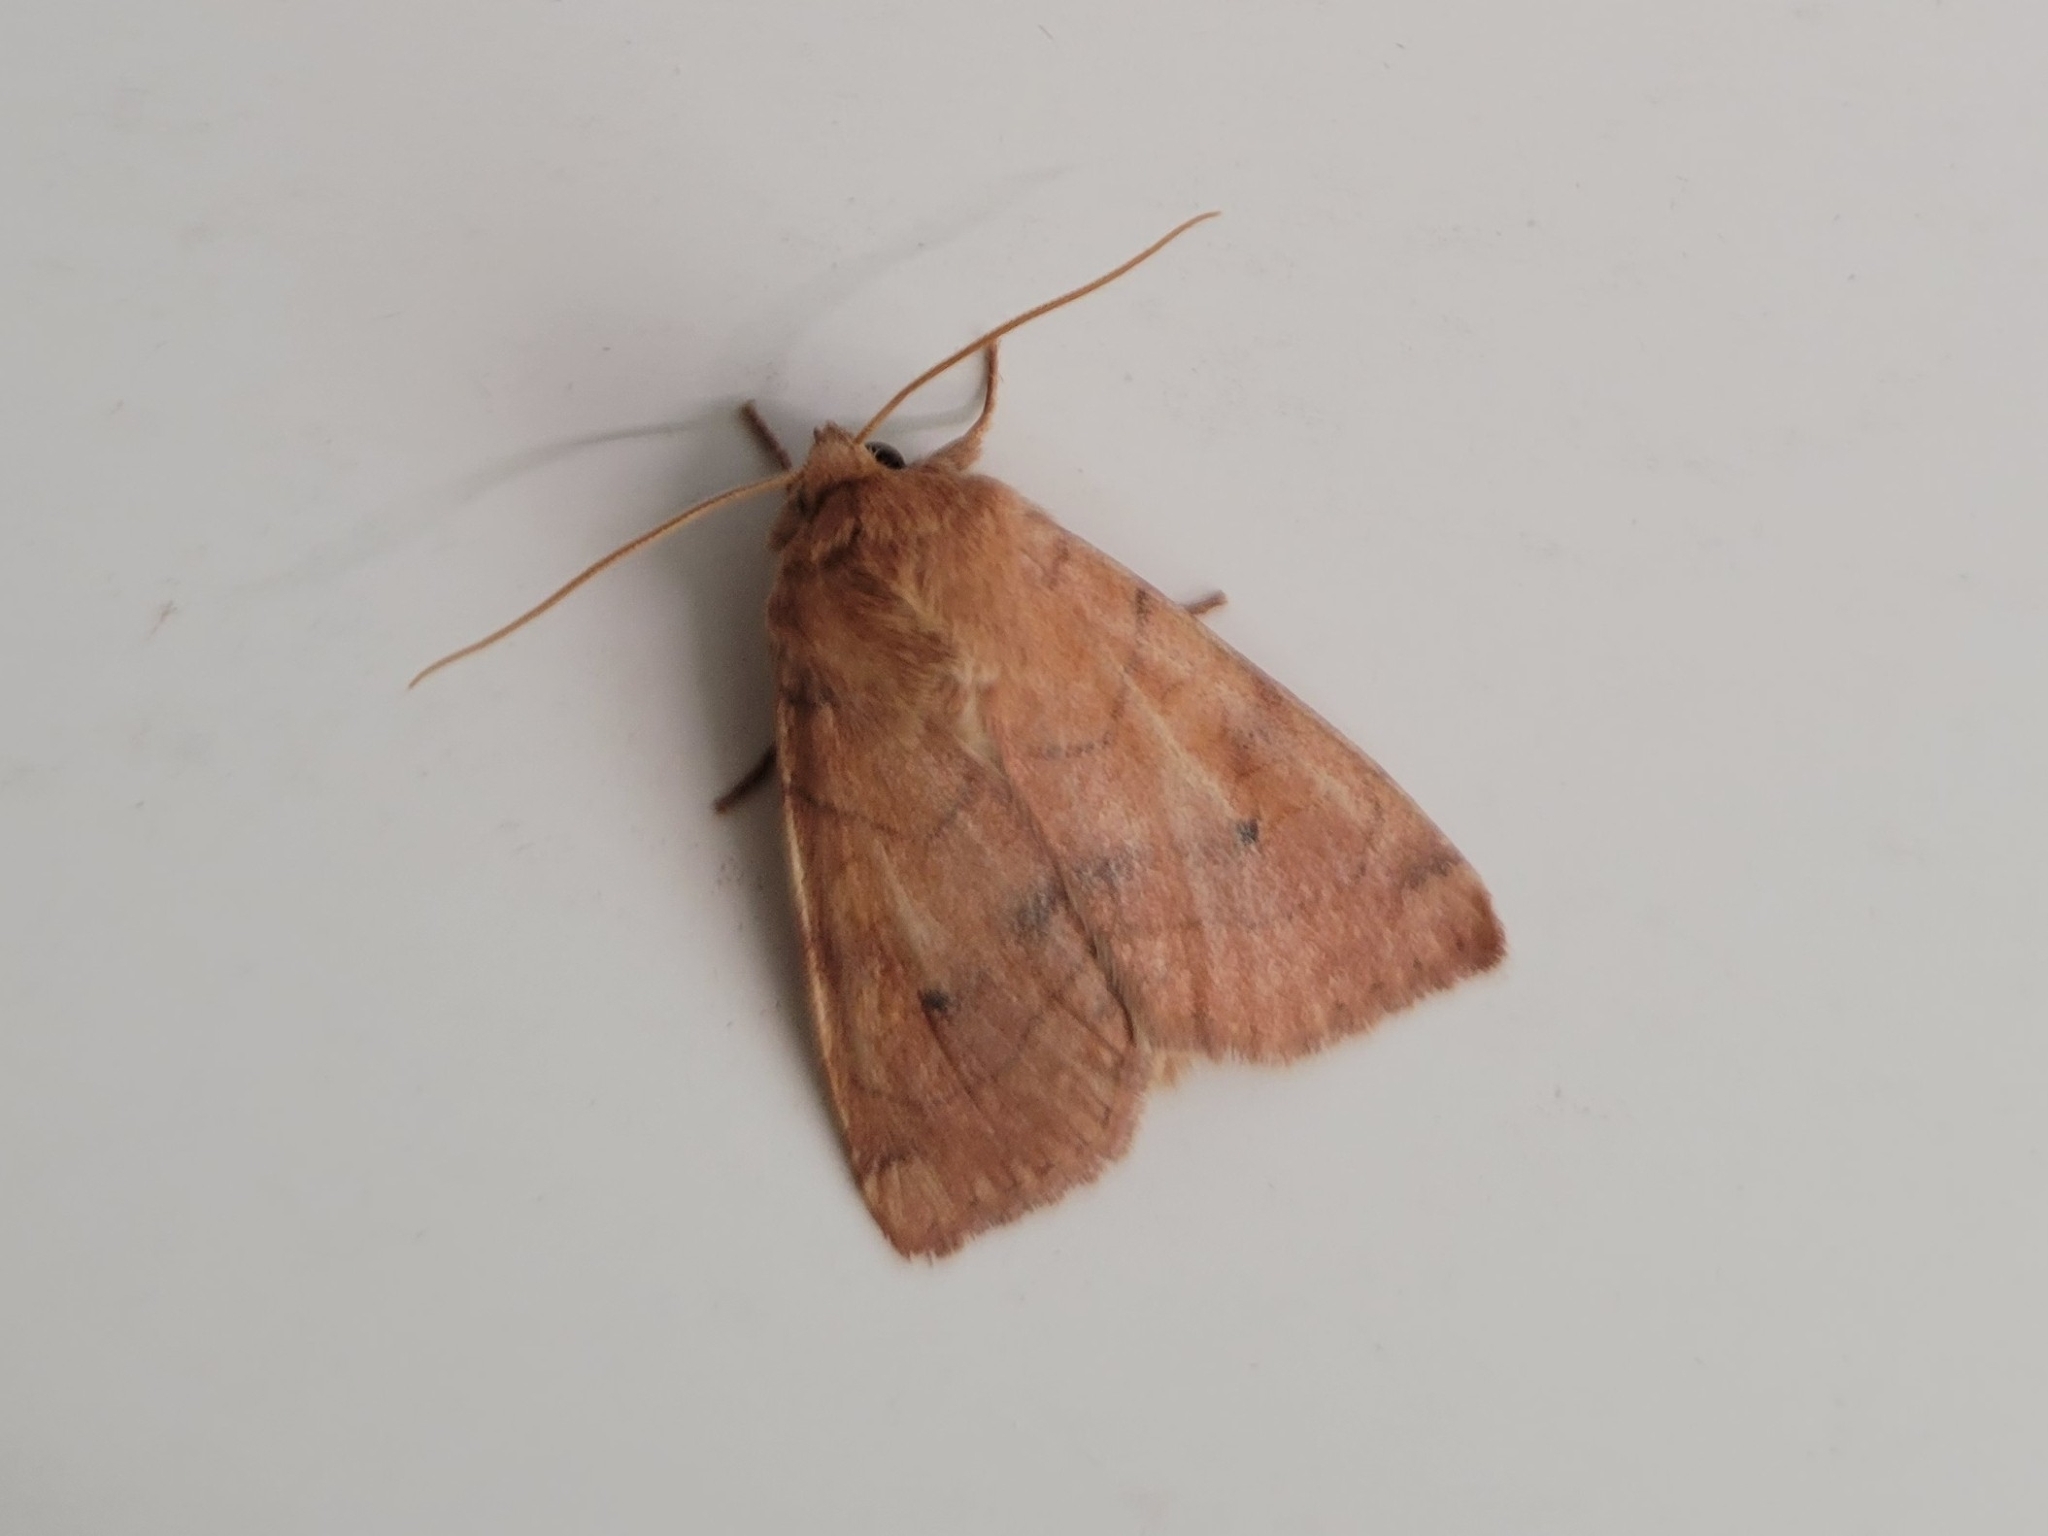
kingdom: Animalia
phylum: Arthropoda
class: Insecta
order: Lepidoptera
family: Noctuidae
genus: Enargia
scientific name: Enargia infumata
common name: Smoked sallow
